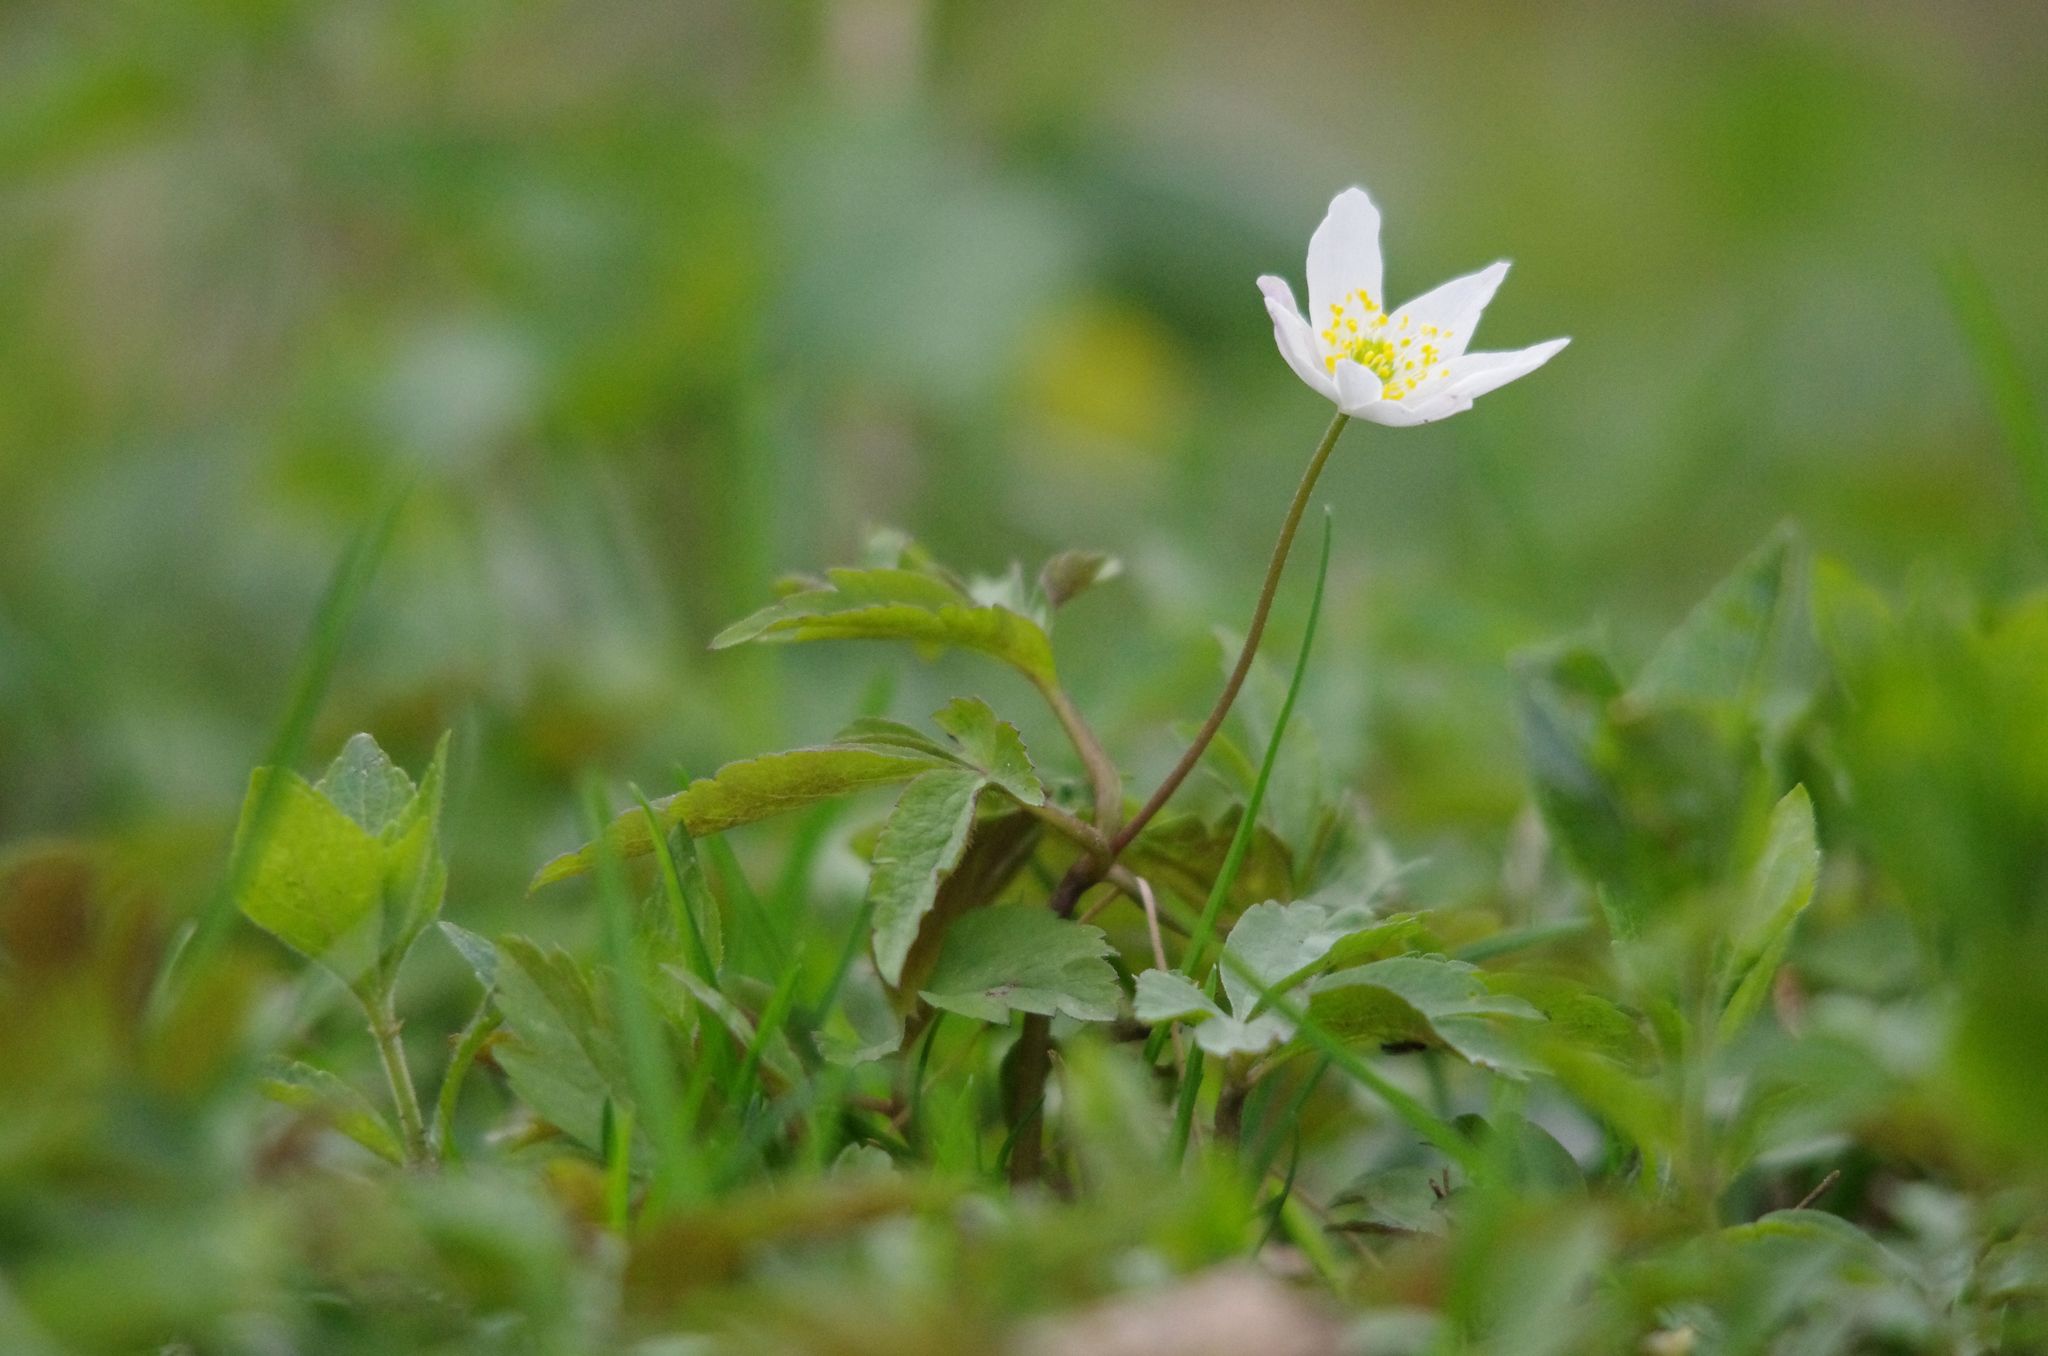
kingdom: Plantae
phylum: Tracheophyta
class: Magnoliopsida
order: Ranunculales
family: Ranunculaceae
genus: Anemone
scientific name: Anemone nemorosa
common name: Wood anemone
